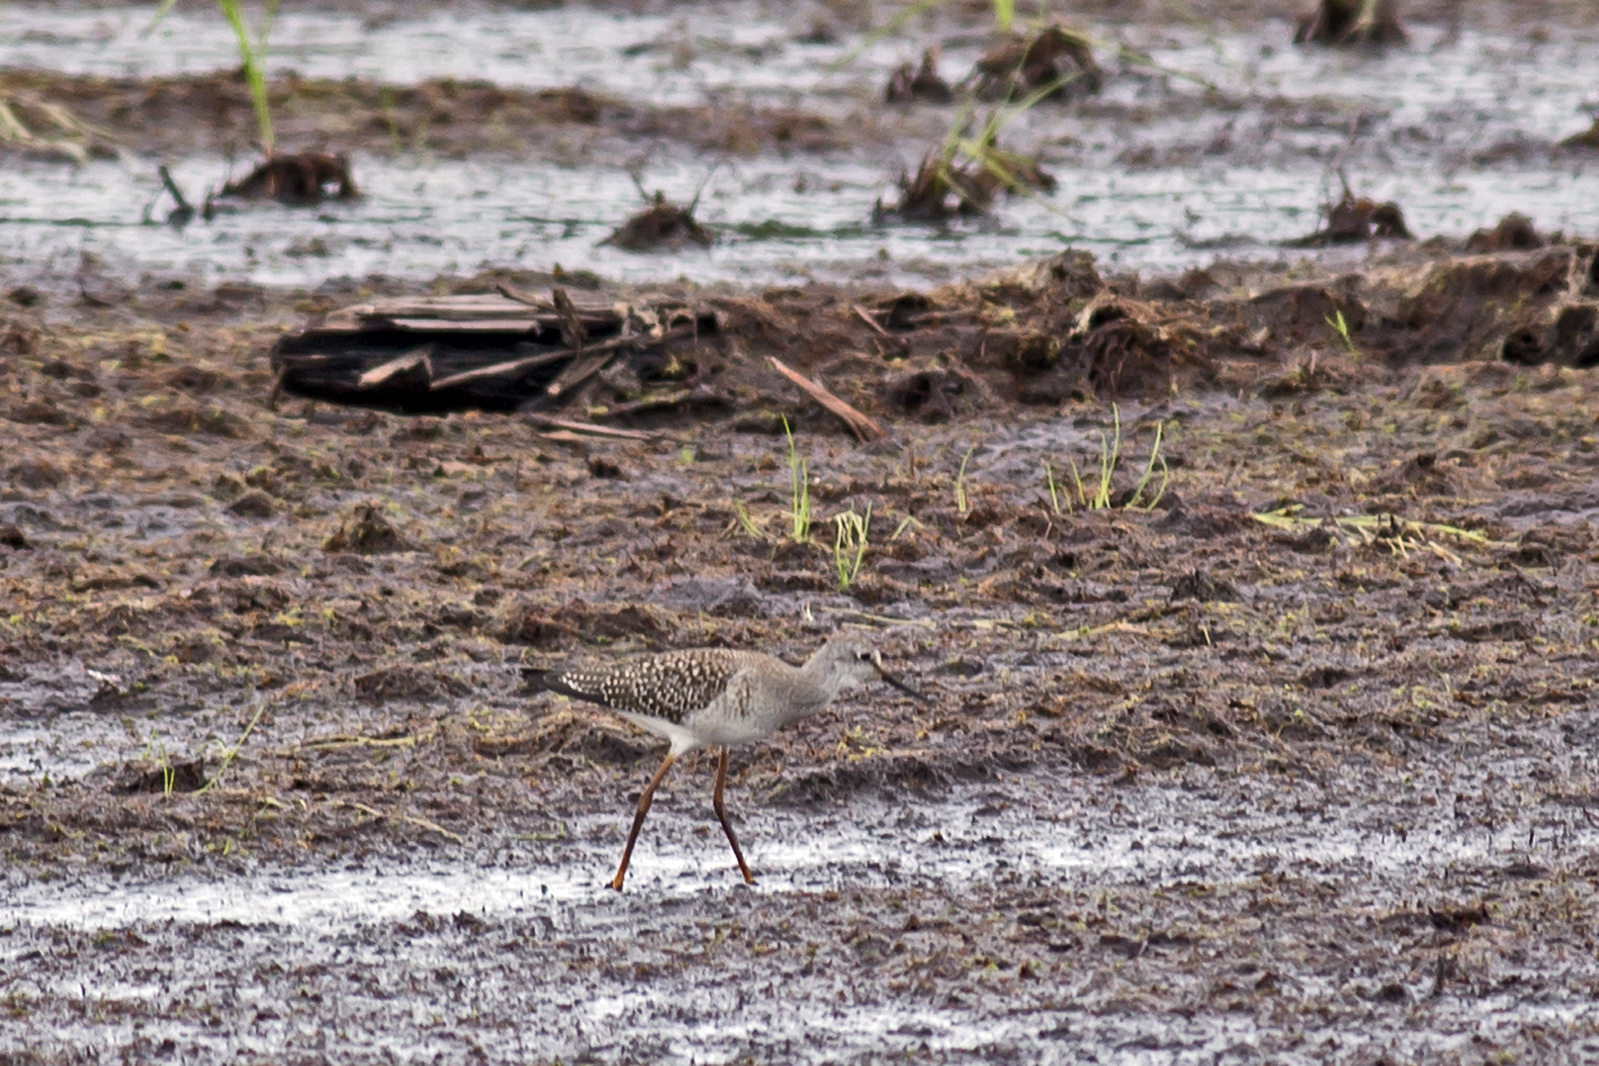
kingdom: Animalia
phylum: Chordata
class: Aves
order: Charadriiformes
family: Scolopacidae
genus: Tringa
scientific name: Tringa flavipes
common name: Lesser yellowlegs
